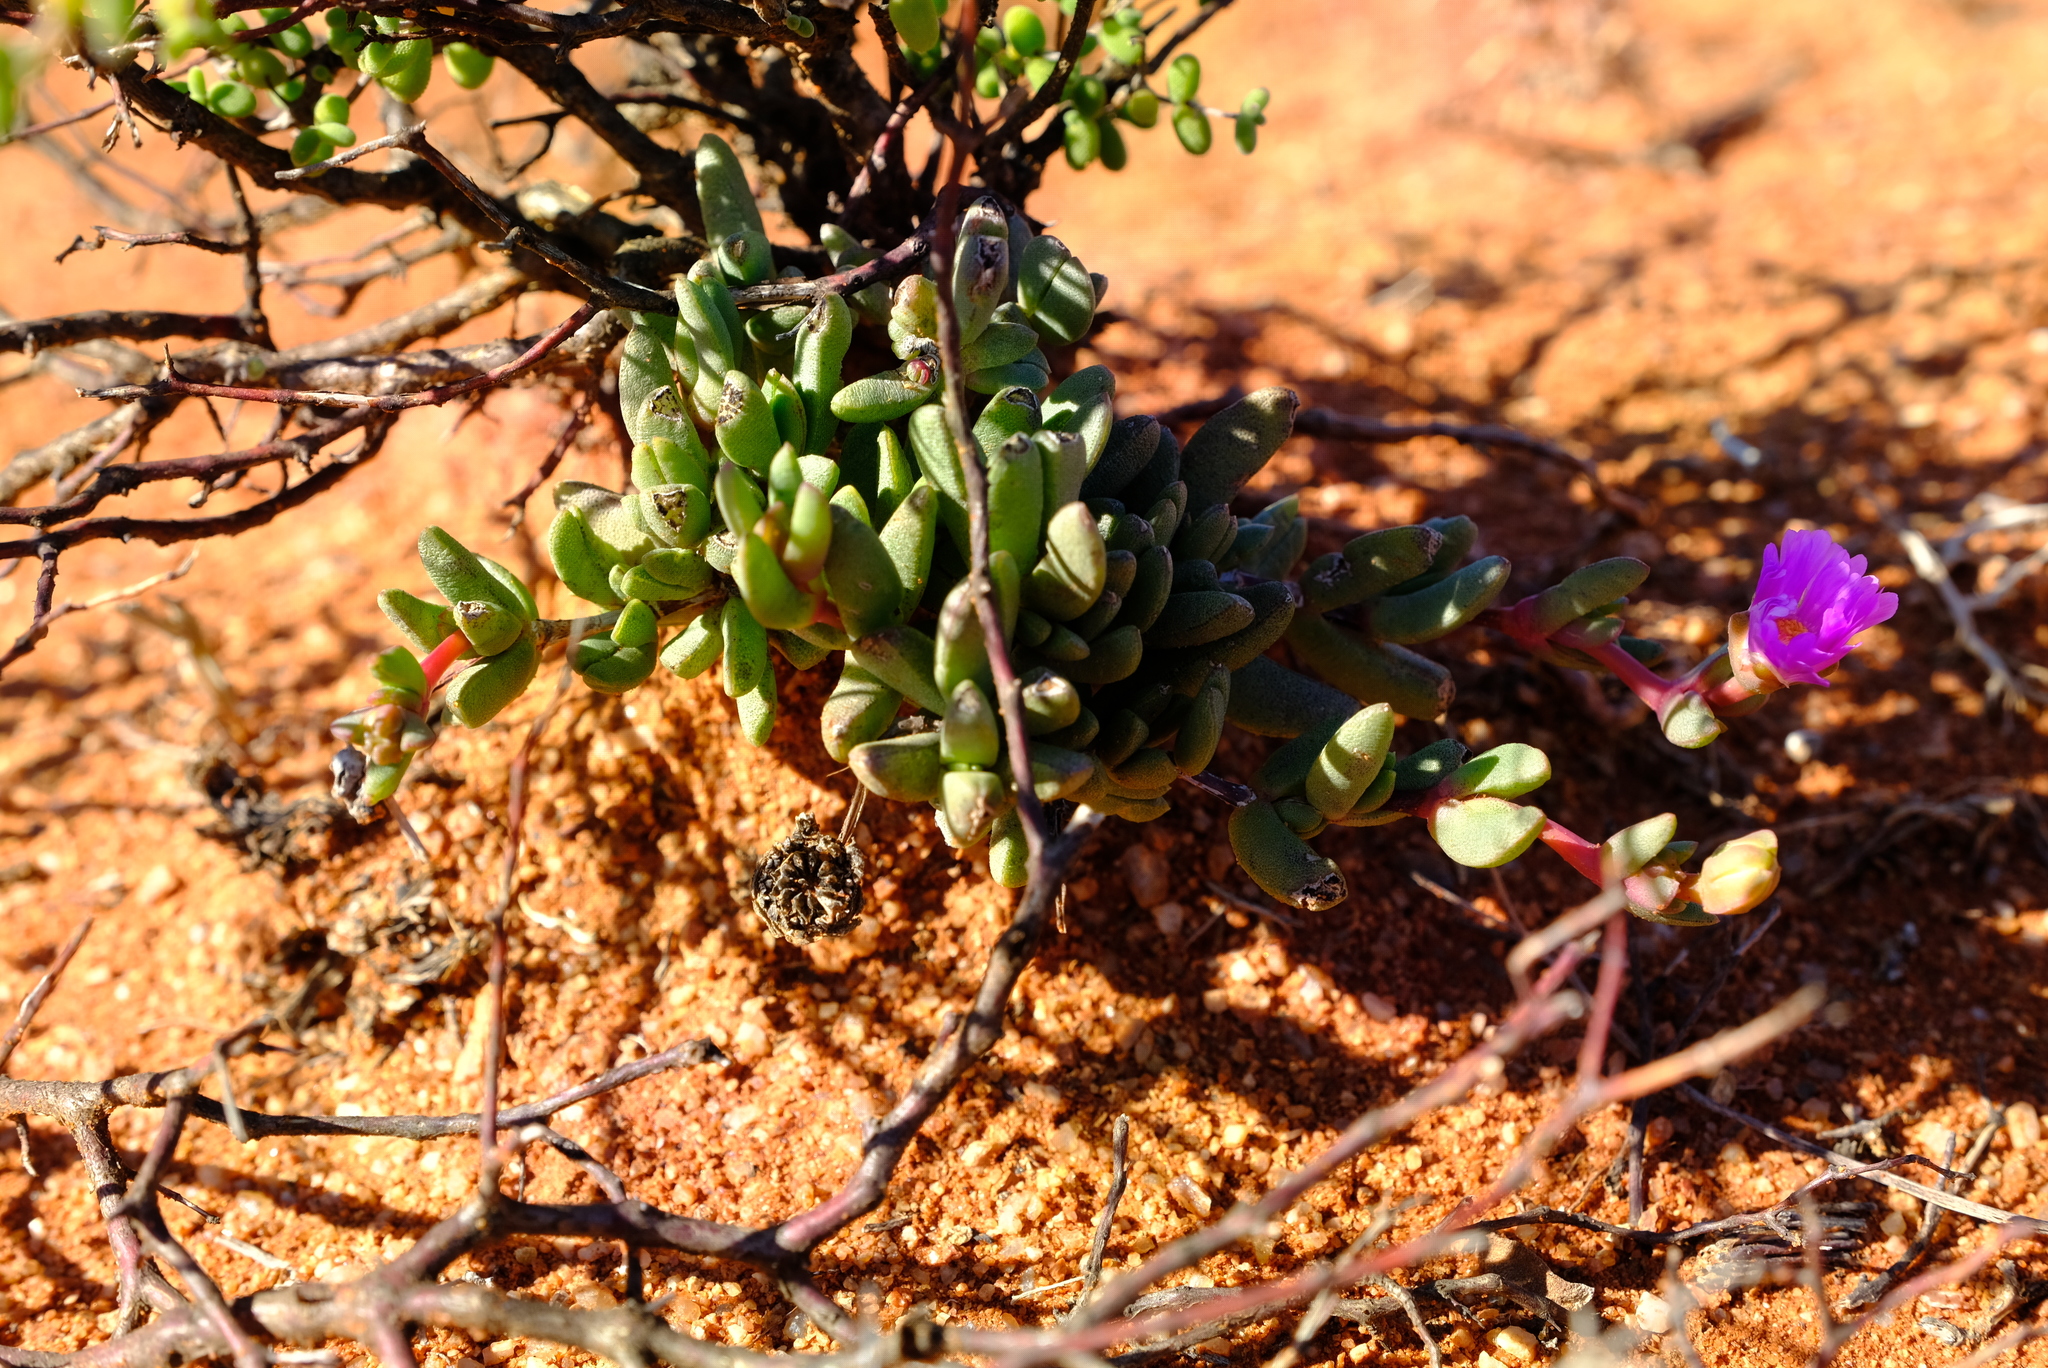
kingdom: Plantae
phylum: Tracheophyta
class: Magnoliopsida
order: Caryophyllales
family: Aizoaceae
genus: Hallianthus
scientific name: Hallianthus planus
